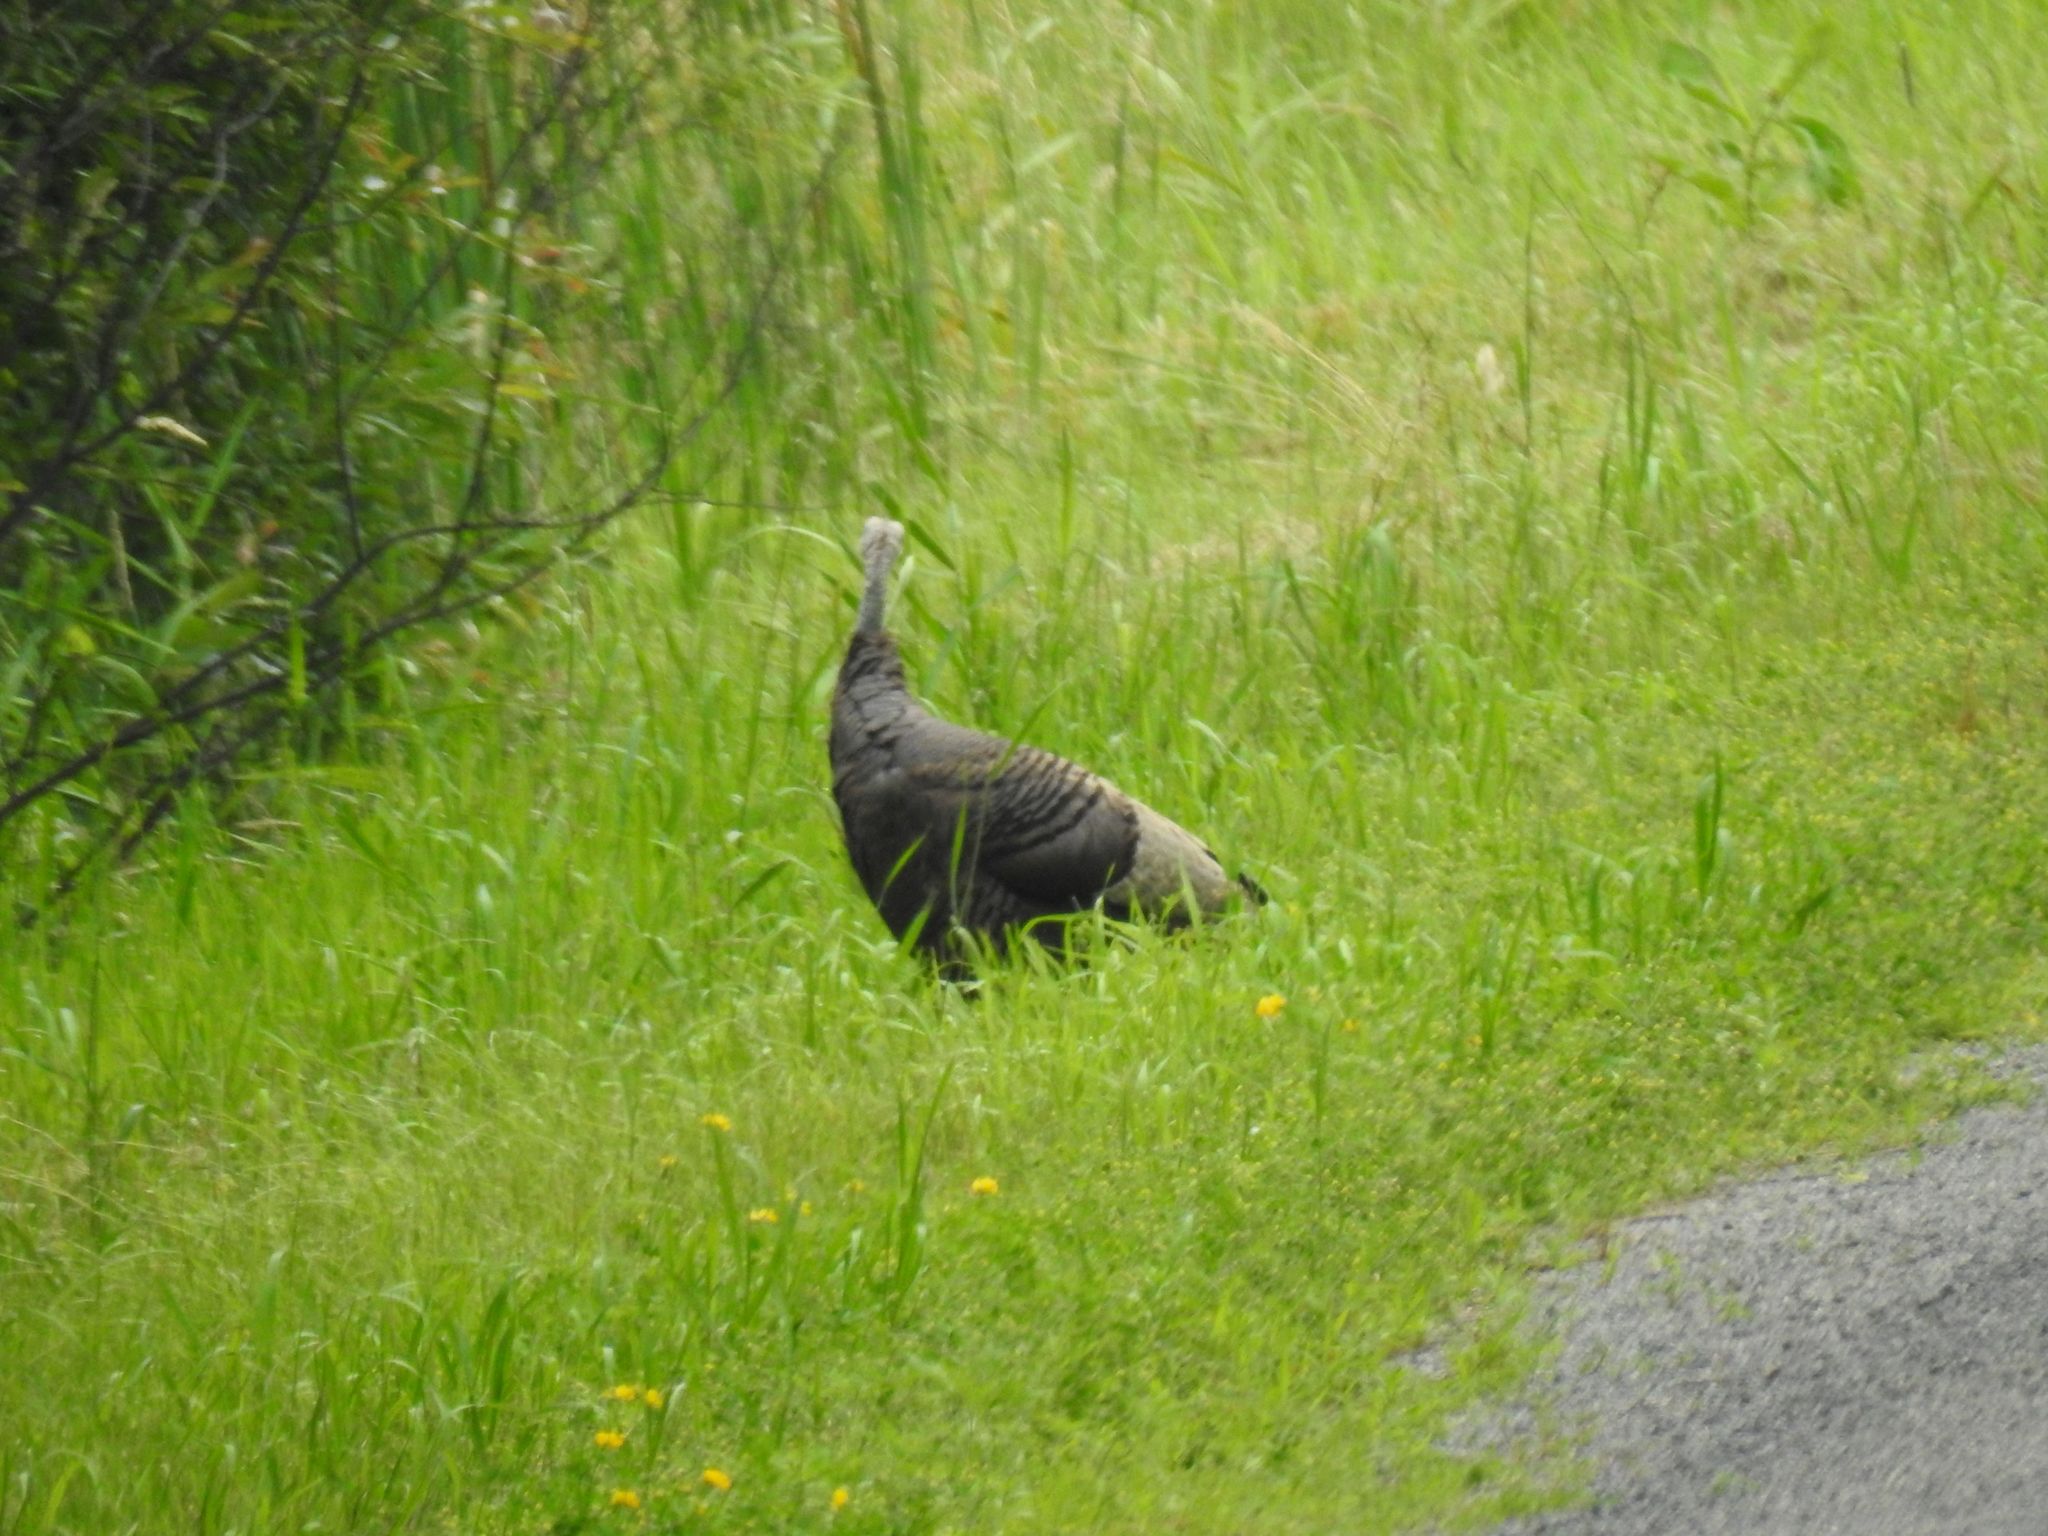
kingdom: Animalia
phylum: Chordata
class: Aves
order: Galliformes
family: Phasianidae
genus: Meleagris
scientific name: Meleagris gallopavo
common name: Wild turkey
